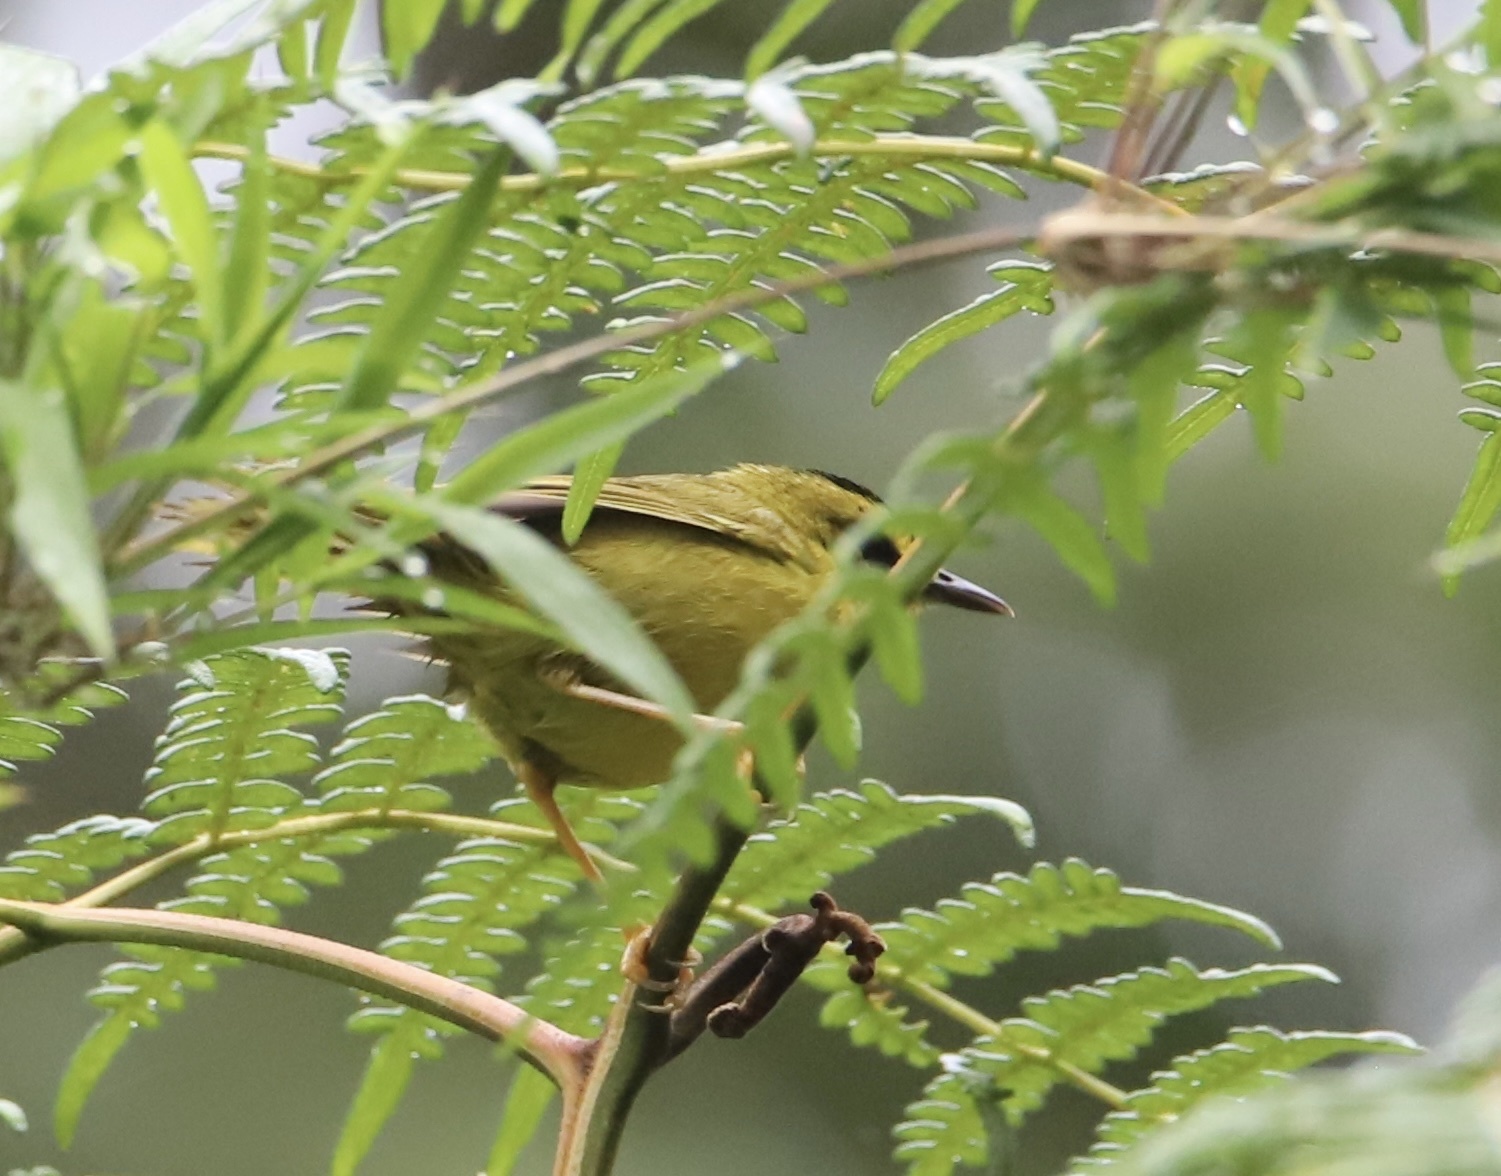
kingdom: Animalia
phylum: Chordata
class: Aves
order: Passeriformes
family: Parulidae
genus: Myiothlypis
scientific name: Myiothlypis nigrocristata
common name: Black-crested warbler
